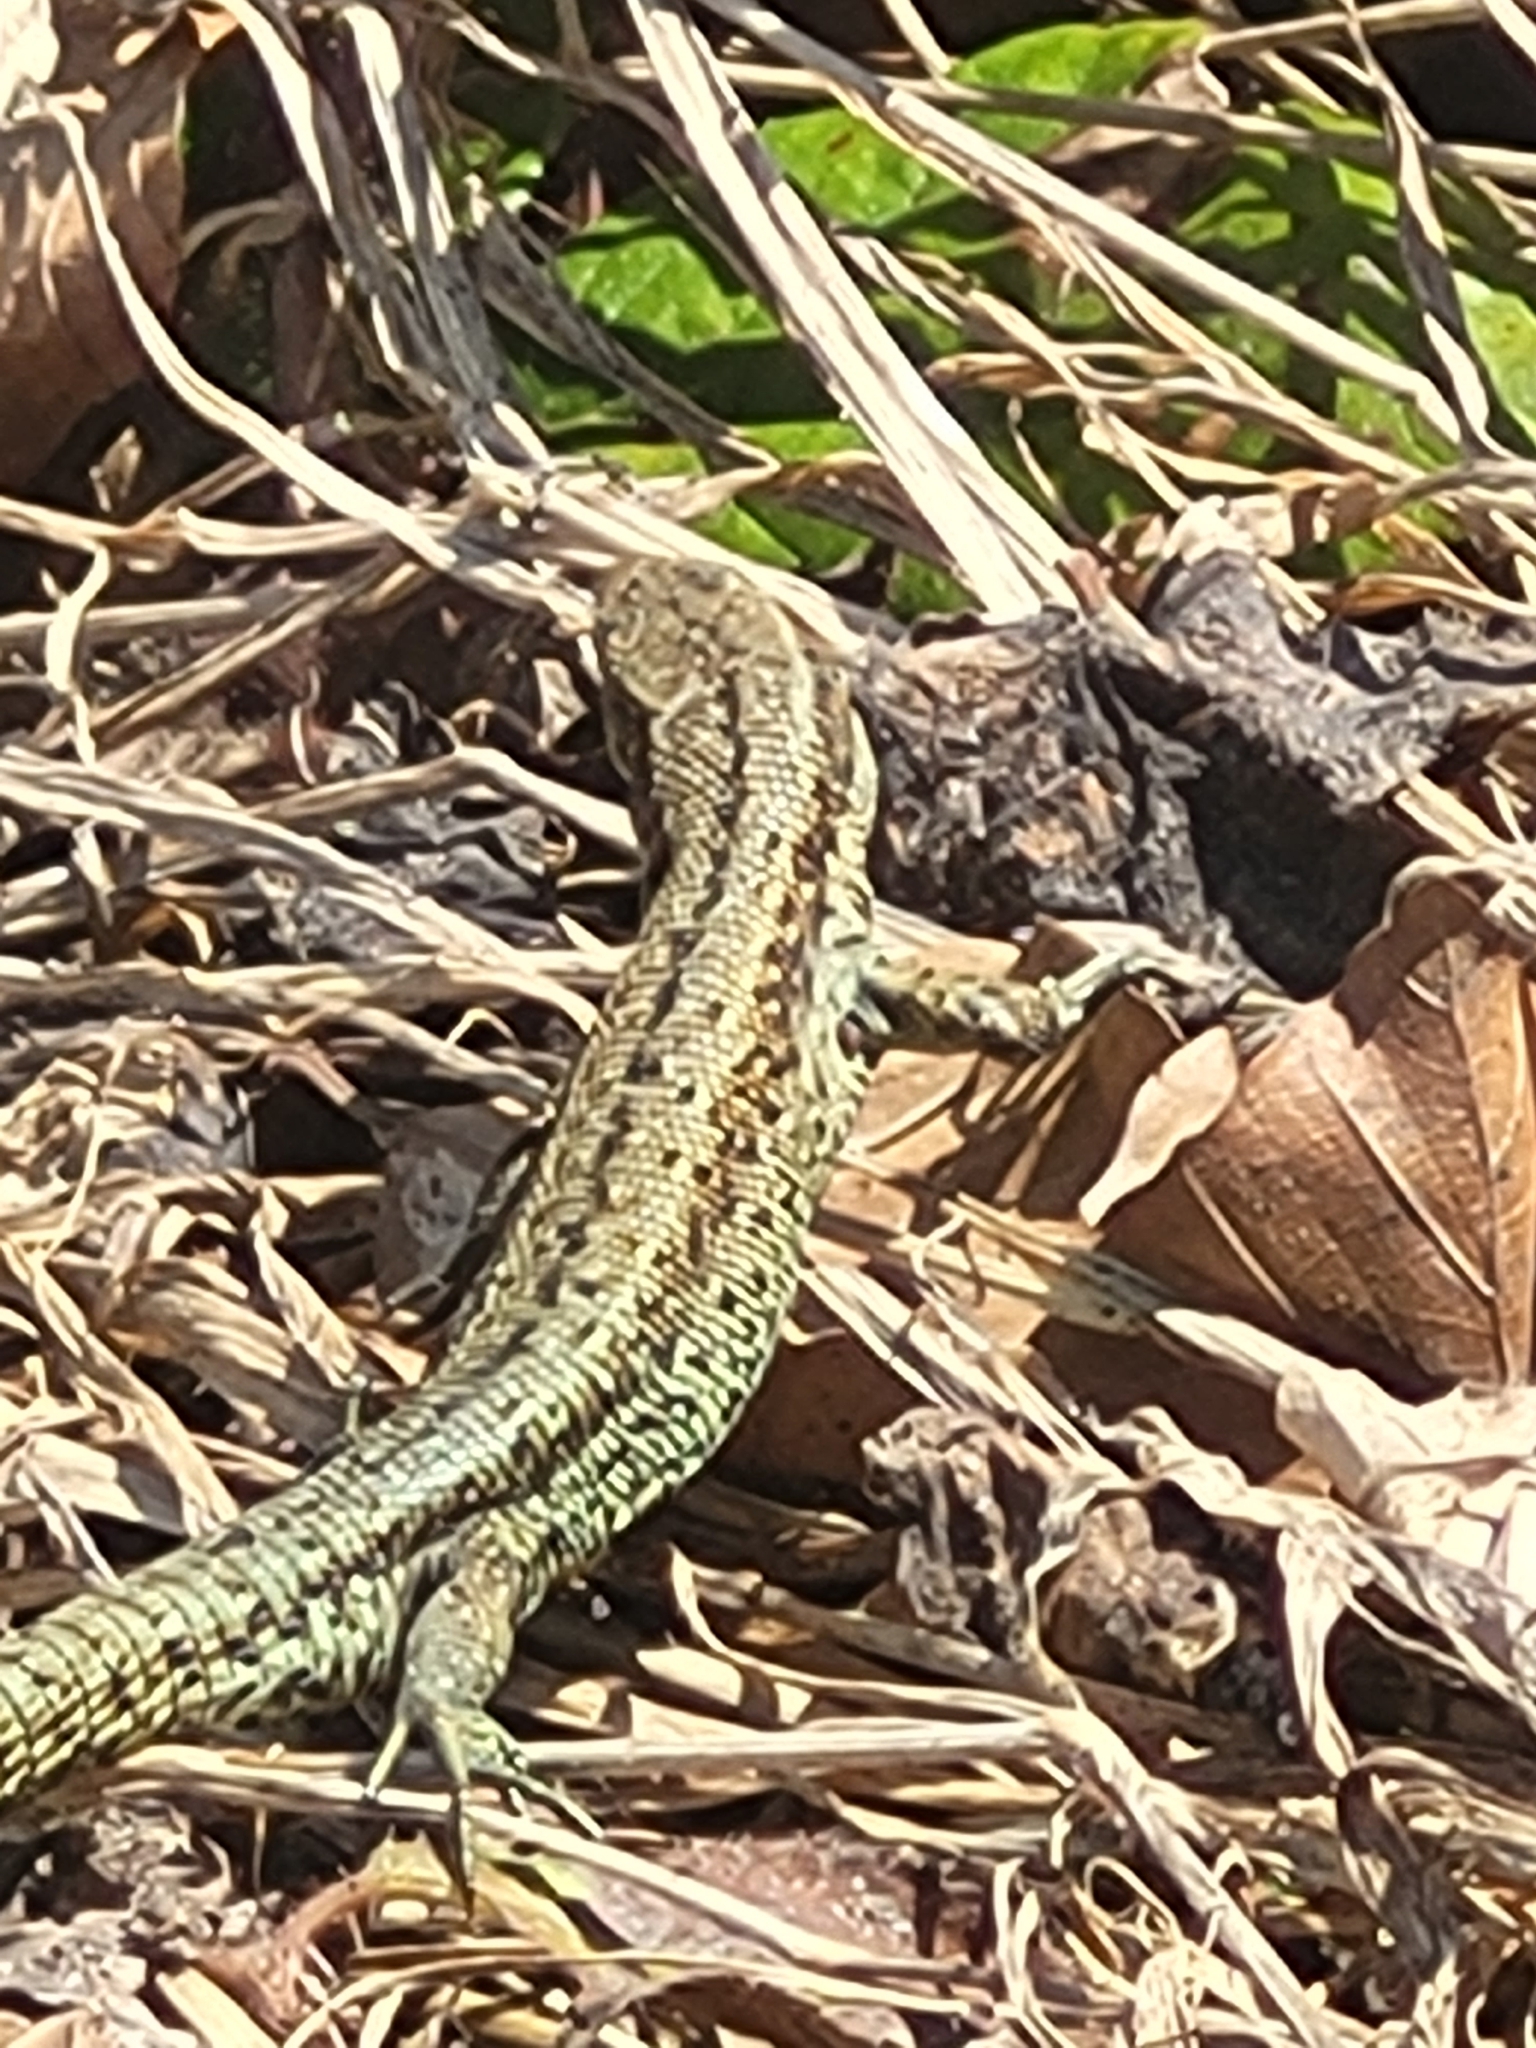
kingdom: Animalia
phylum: Chordata
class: Squamata
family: Lacertidae
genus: Zootoca
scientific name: Zootoca vivipara
